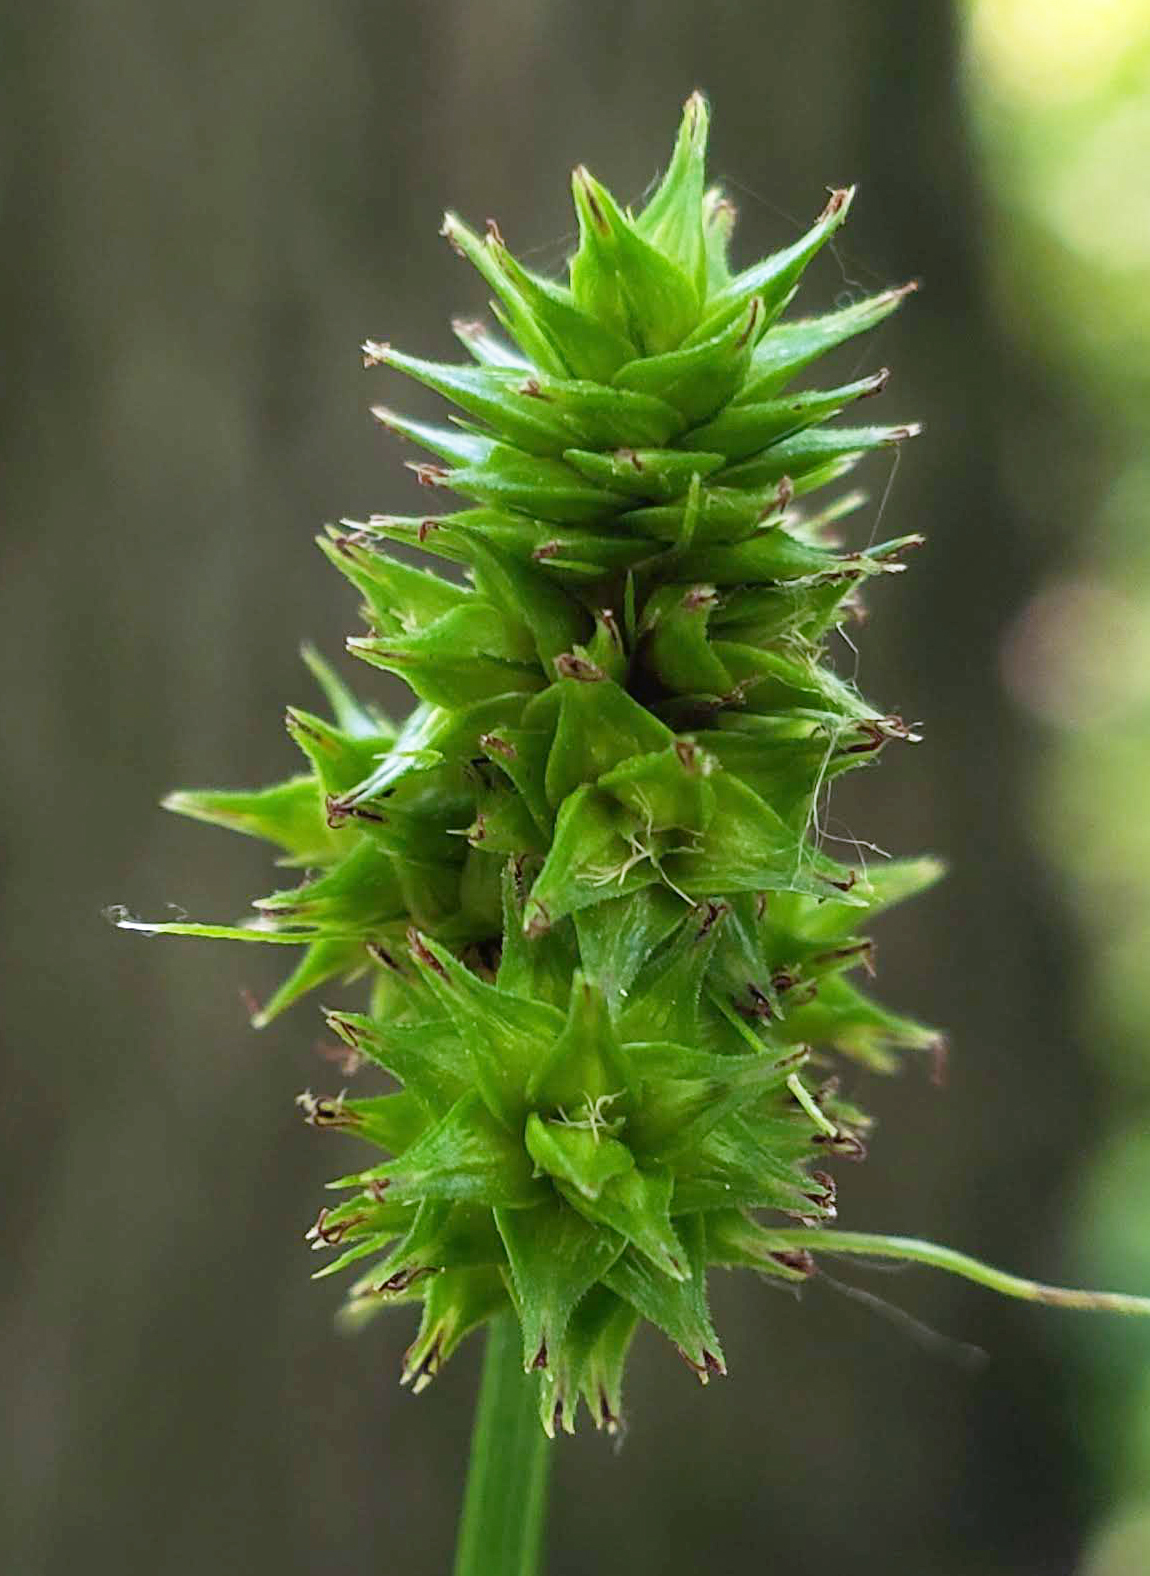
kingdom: Plantae
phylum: Tracheophyta
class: Liliopsida
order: Poales
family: Cyperaceae
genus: Carex
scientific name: Carex cephalophora
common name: Oval-headed sedge
